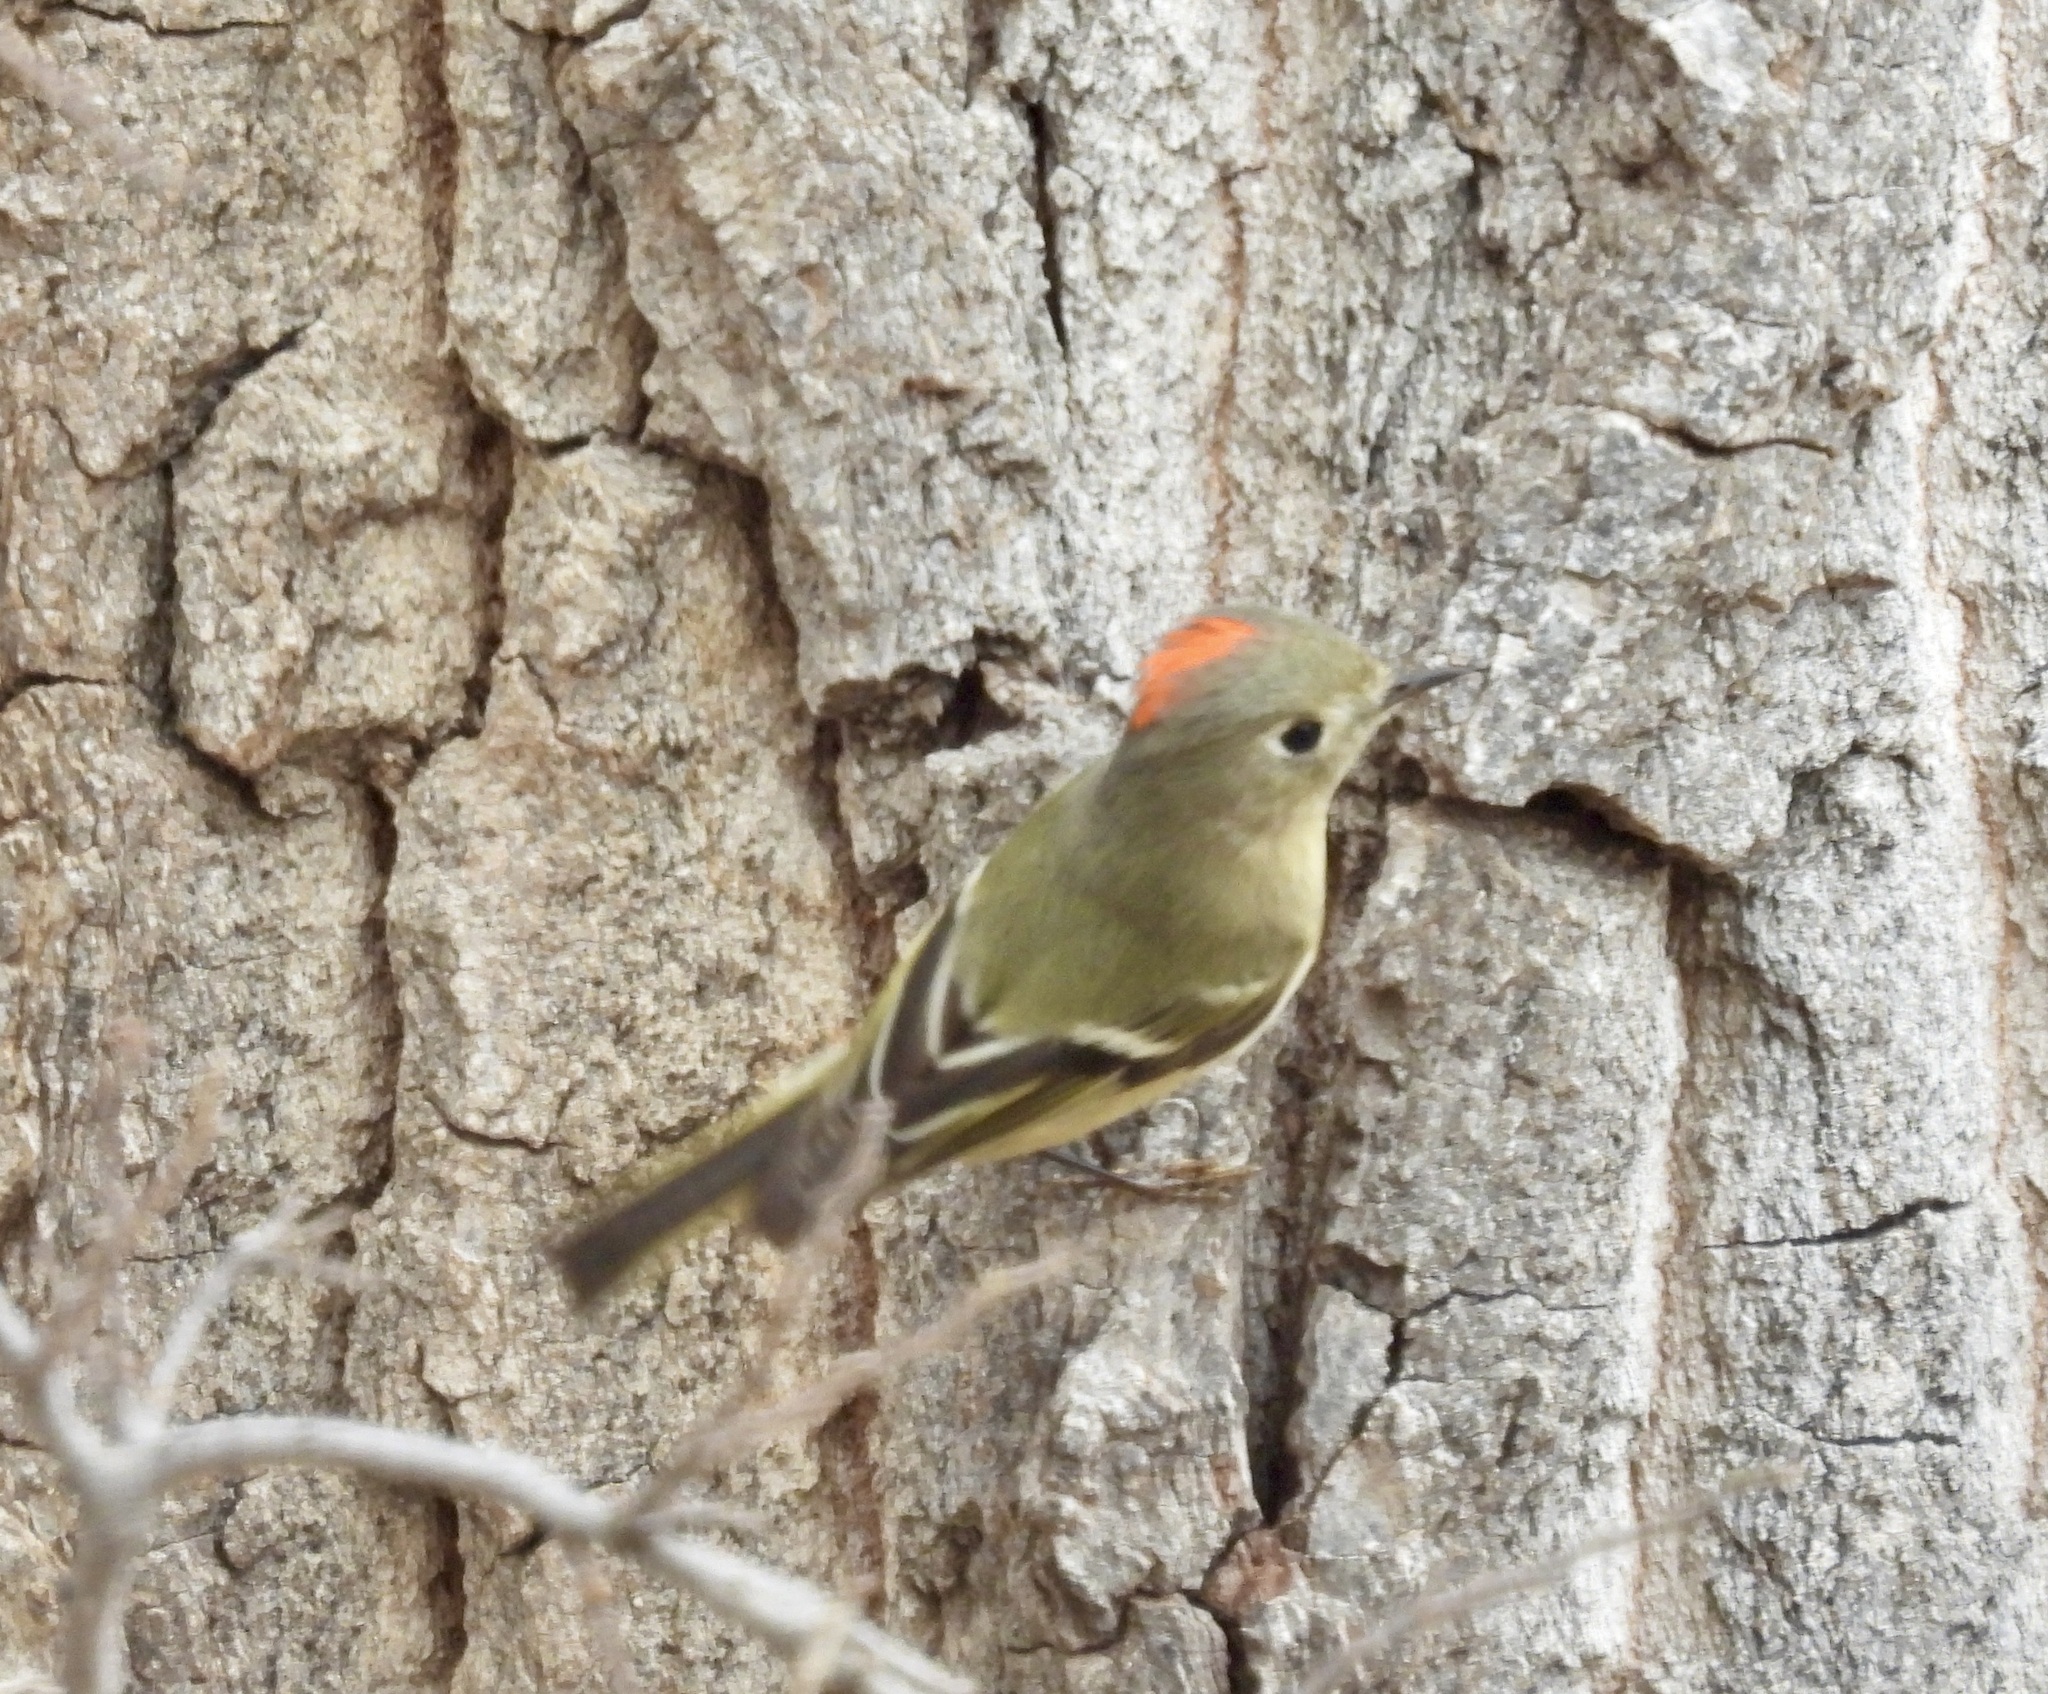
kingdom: Animalia
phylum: Chordata
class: Aves
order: Passeriformes
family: Regulidae
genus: Regulus
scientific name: Regulus calendula
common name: Ruby-crowned kinglet
